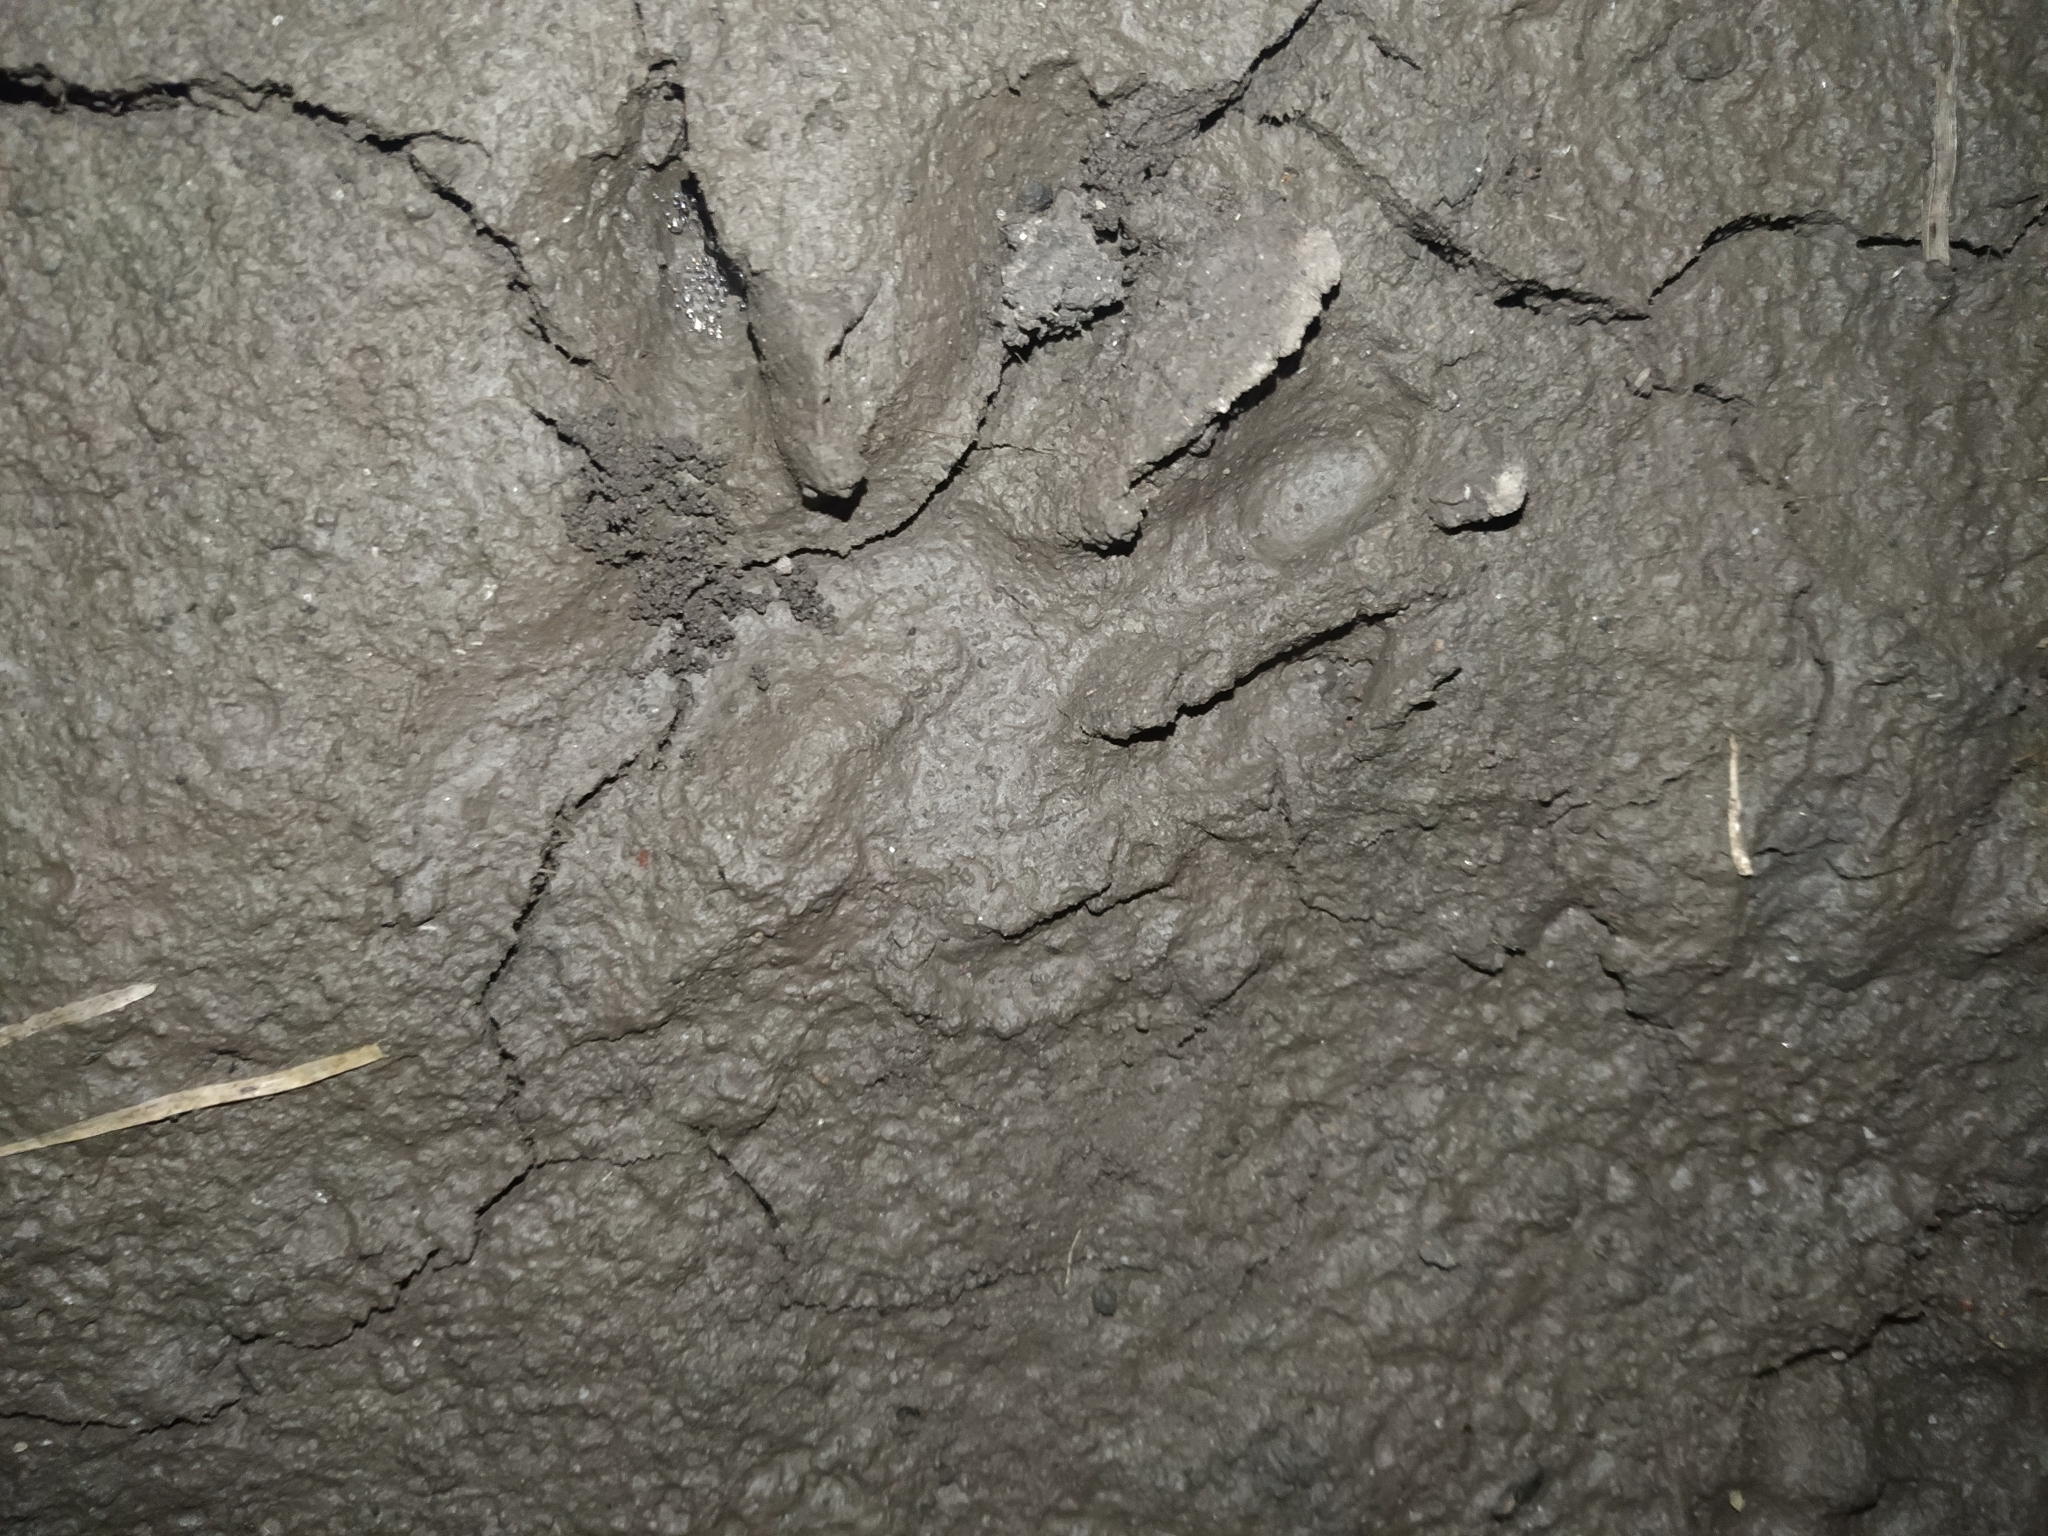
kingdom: Animalia
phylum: Chordata
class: Mammalia
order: Carnivora
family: Procyonidae
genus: Procyon
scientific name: Procyon cancrivorus
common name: Crab-eating raccoon
